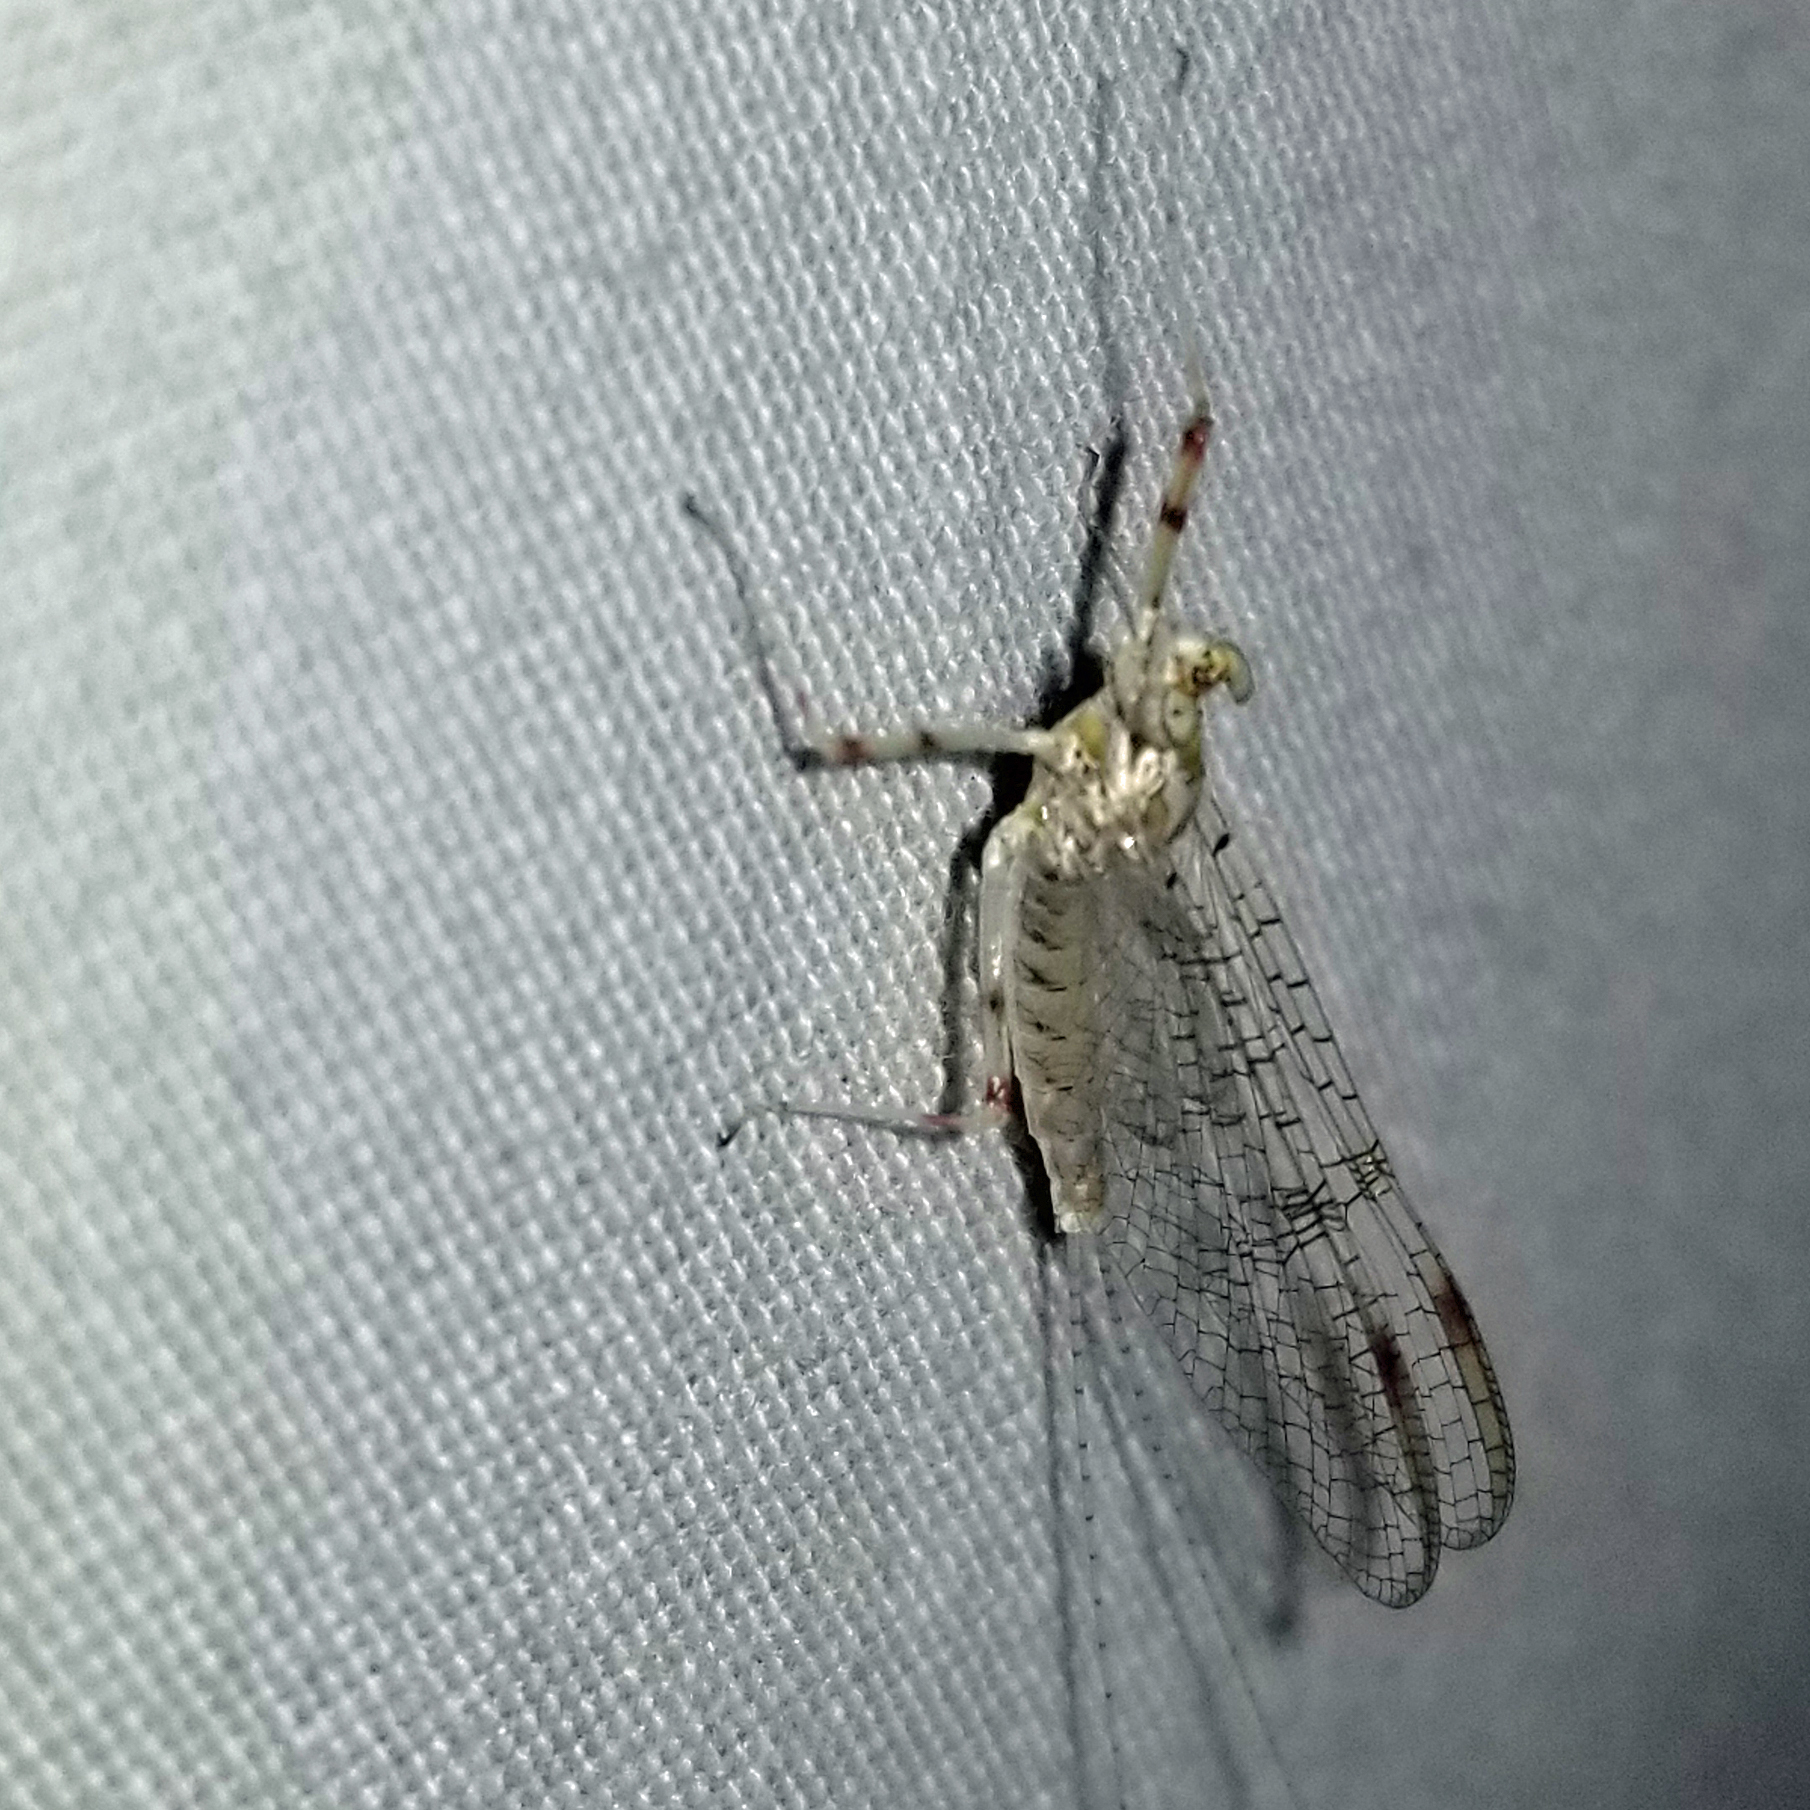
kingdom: Animalia
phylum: Arthropoda
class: Insecta
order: Ephemeroptera
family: Heptageniidae
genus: Stenonema
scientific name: Stenonema femoratum
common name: Dark cahill
